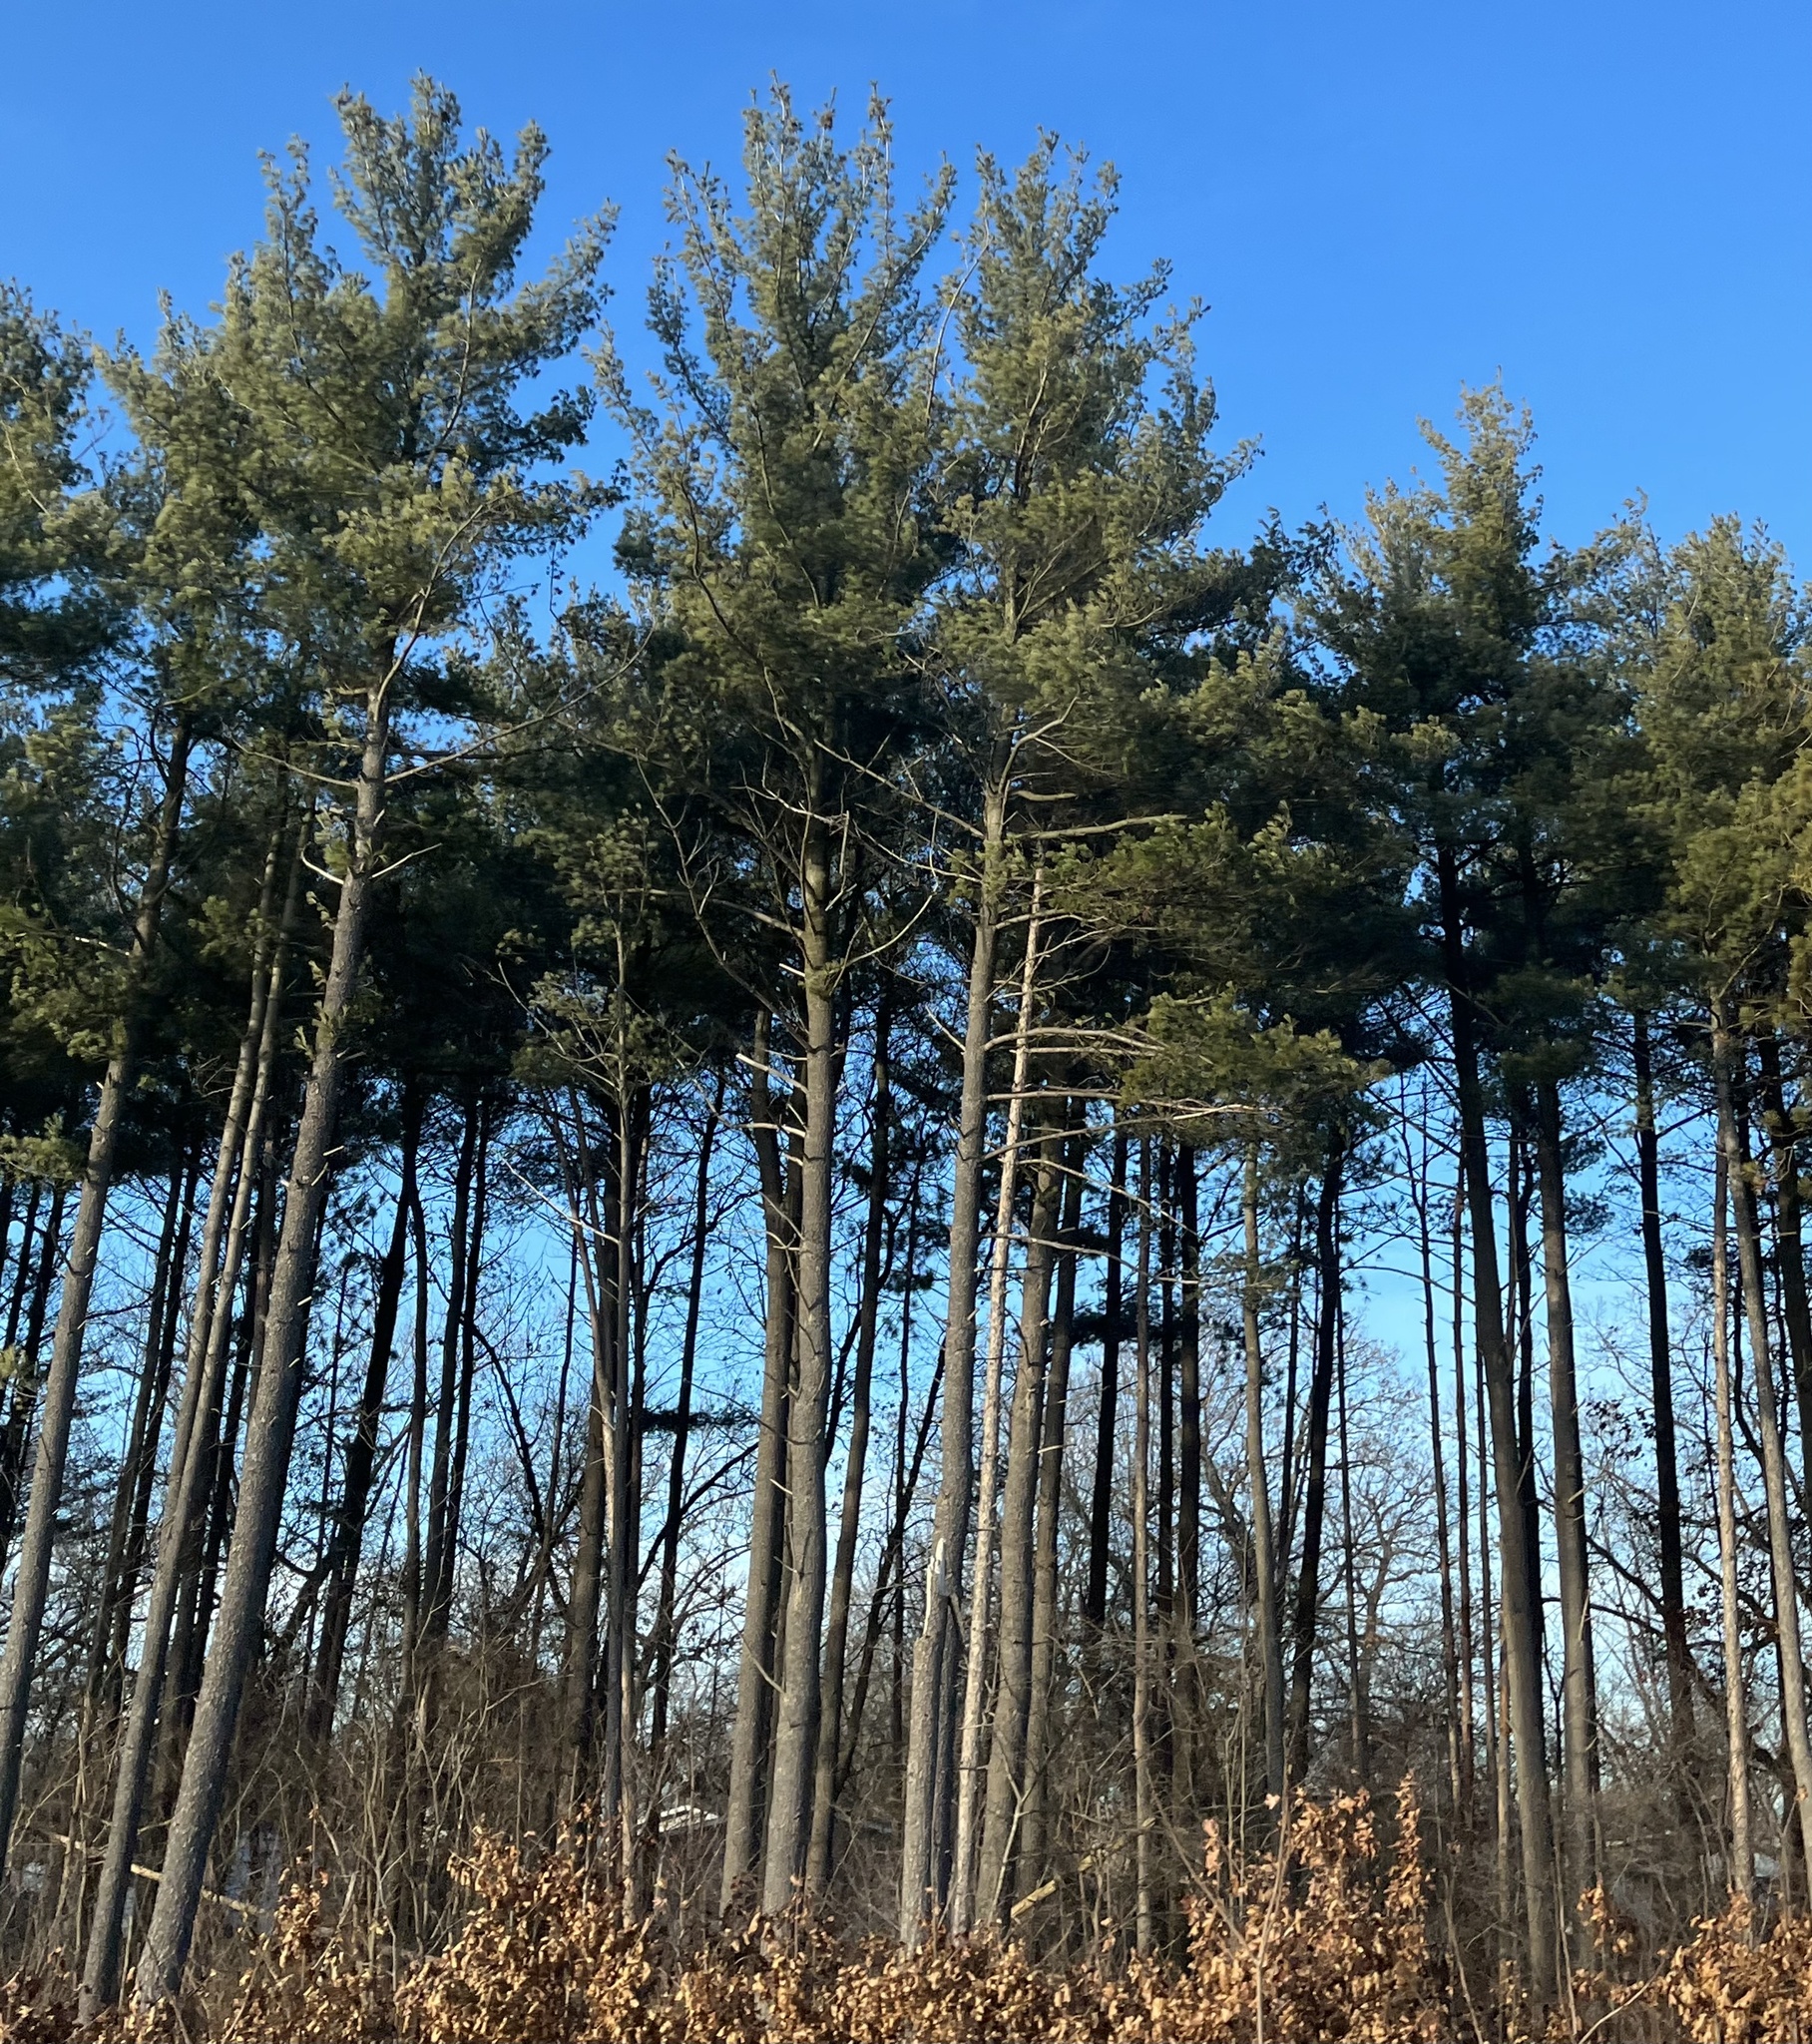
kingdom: Plantae
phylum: Tracheophyta
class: Pinopsida
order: Pinales
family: Pinaceae
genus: Pinus
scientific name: Pinus strobus
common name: Weymouth pine
